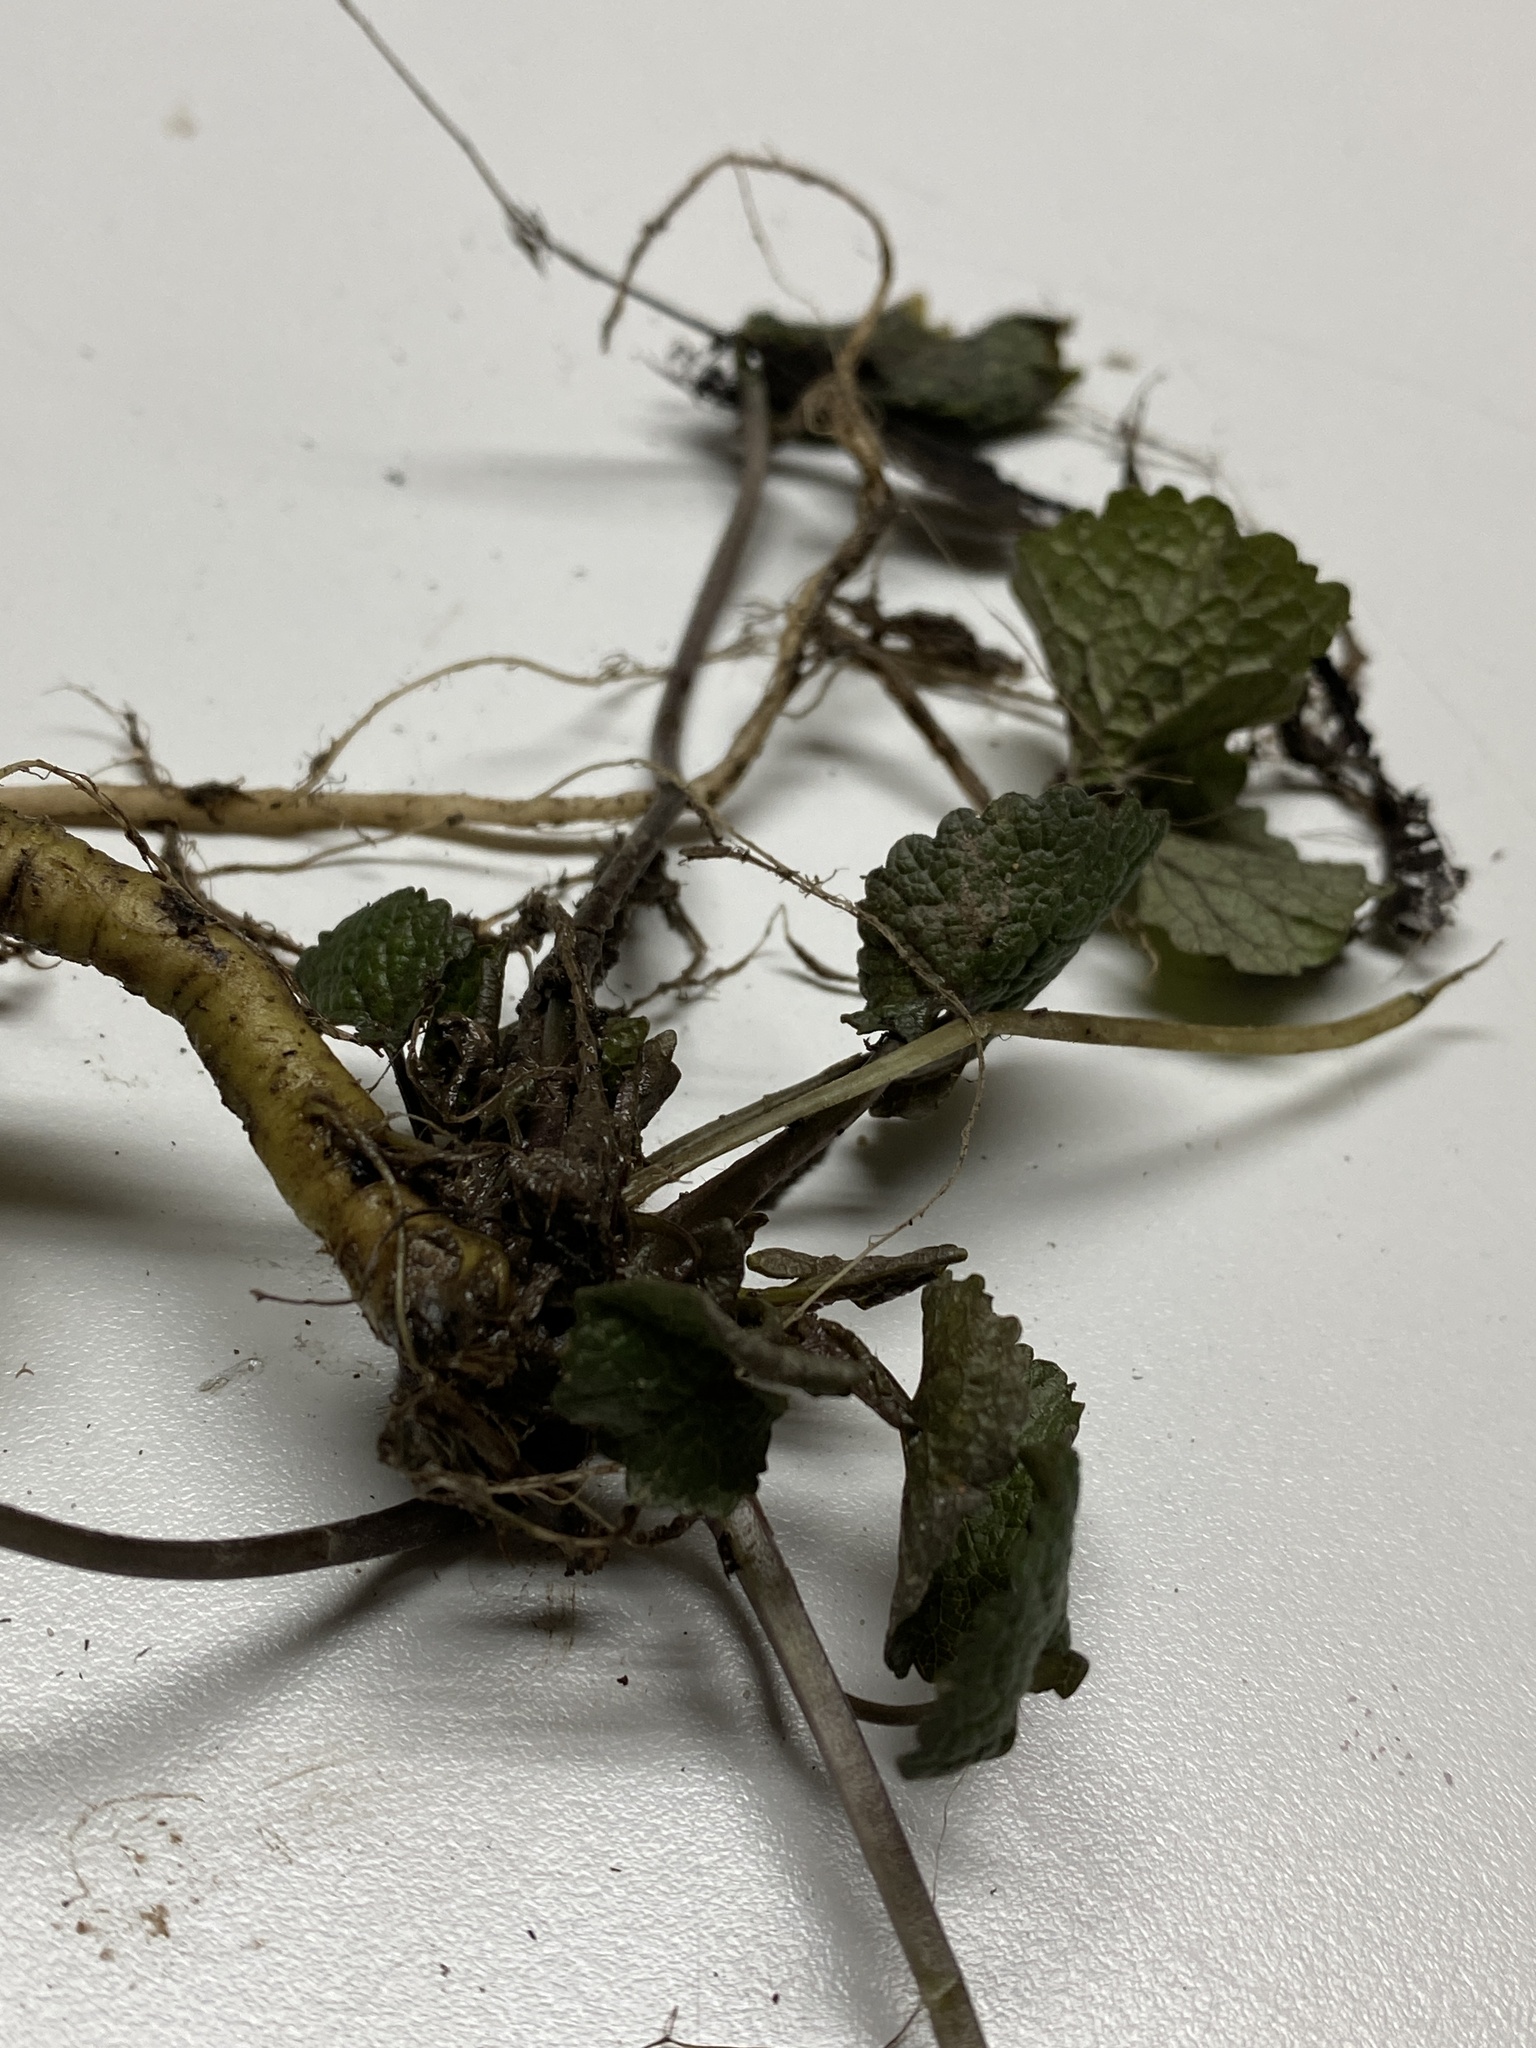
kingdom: Plantae
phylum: Tracheophyta
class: Magnoliopsida
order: Brassicales
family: Brassicaceae
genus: Alliaria
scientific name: Alliaria petiolata
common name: Garlic mustard
